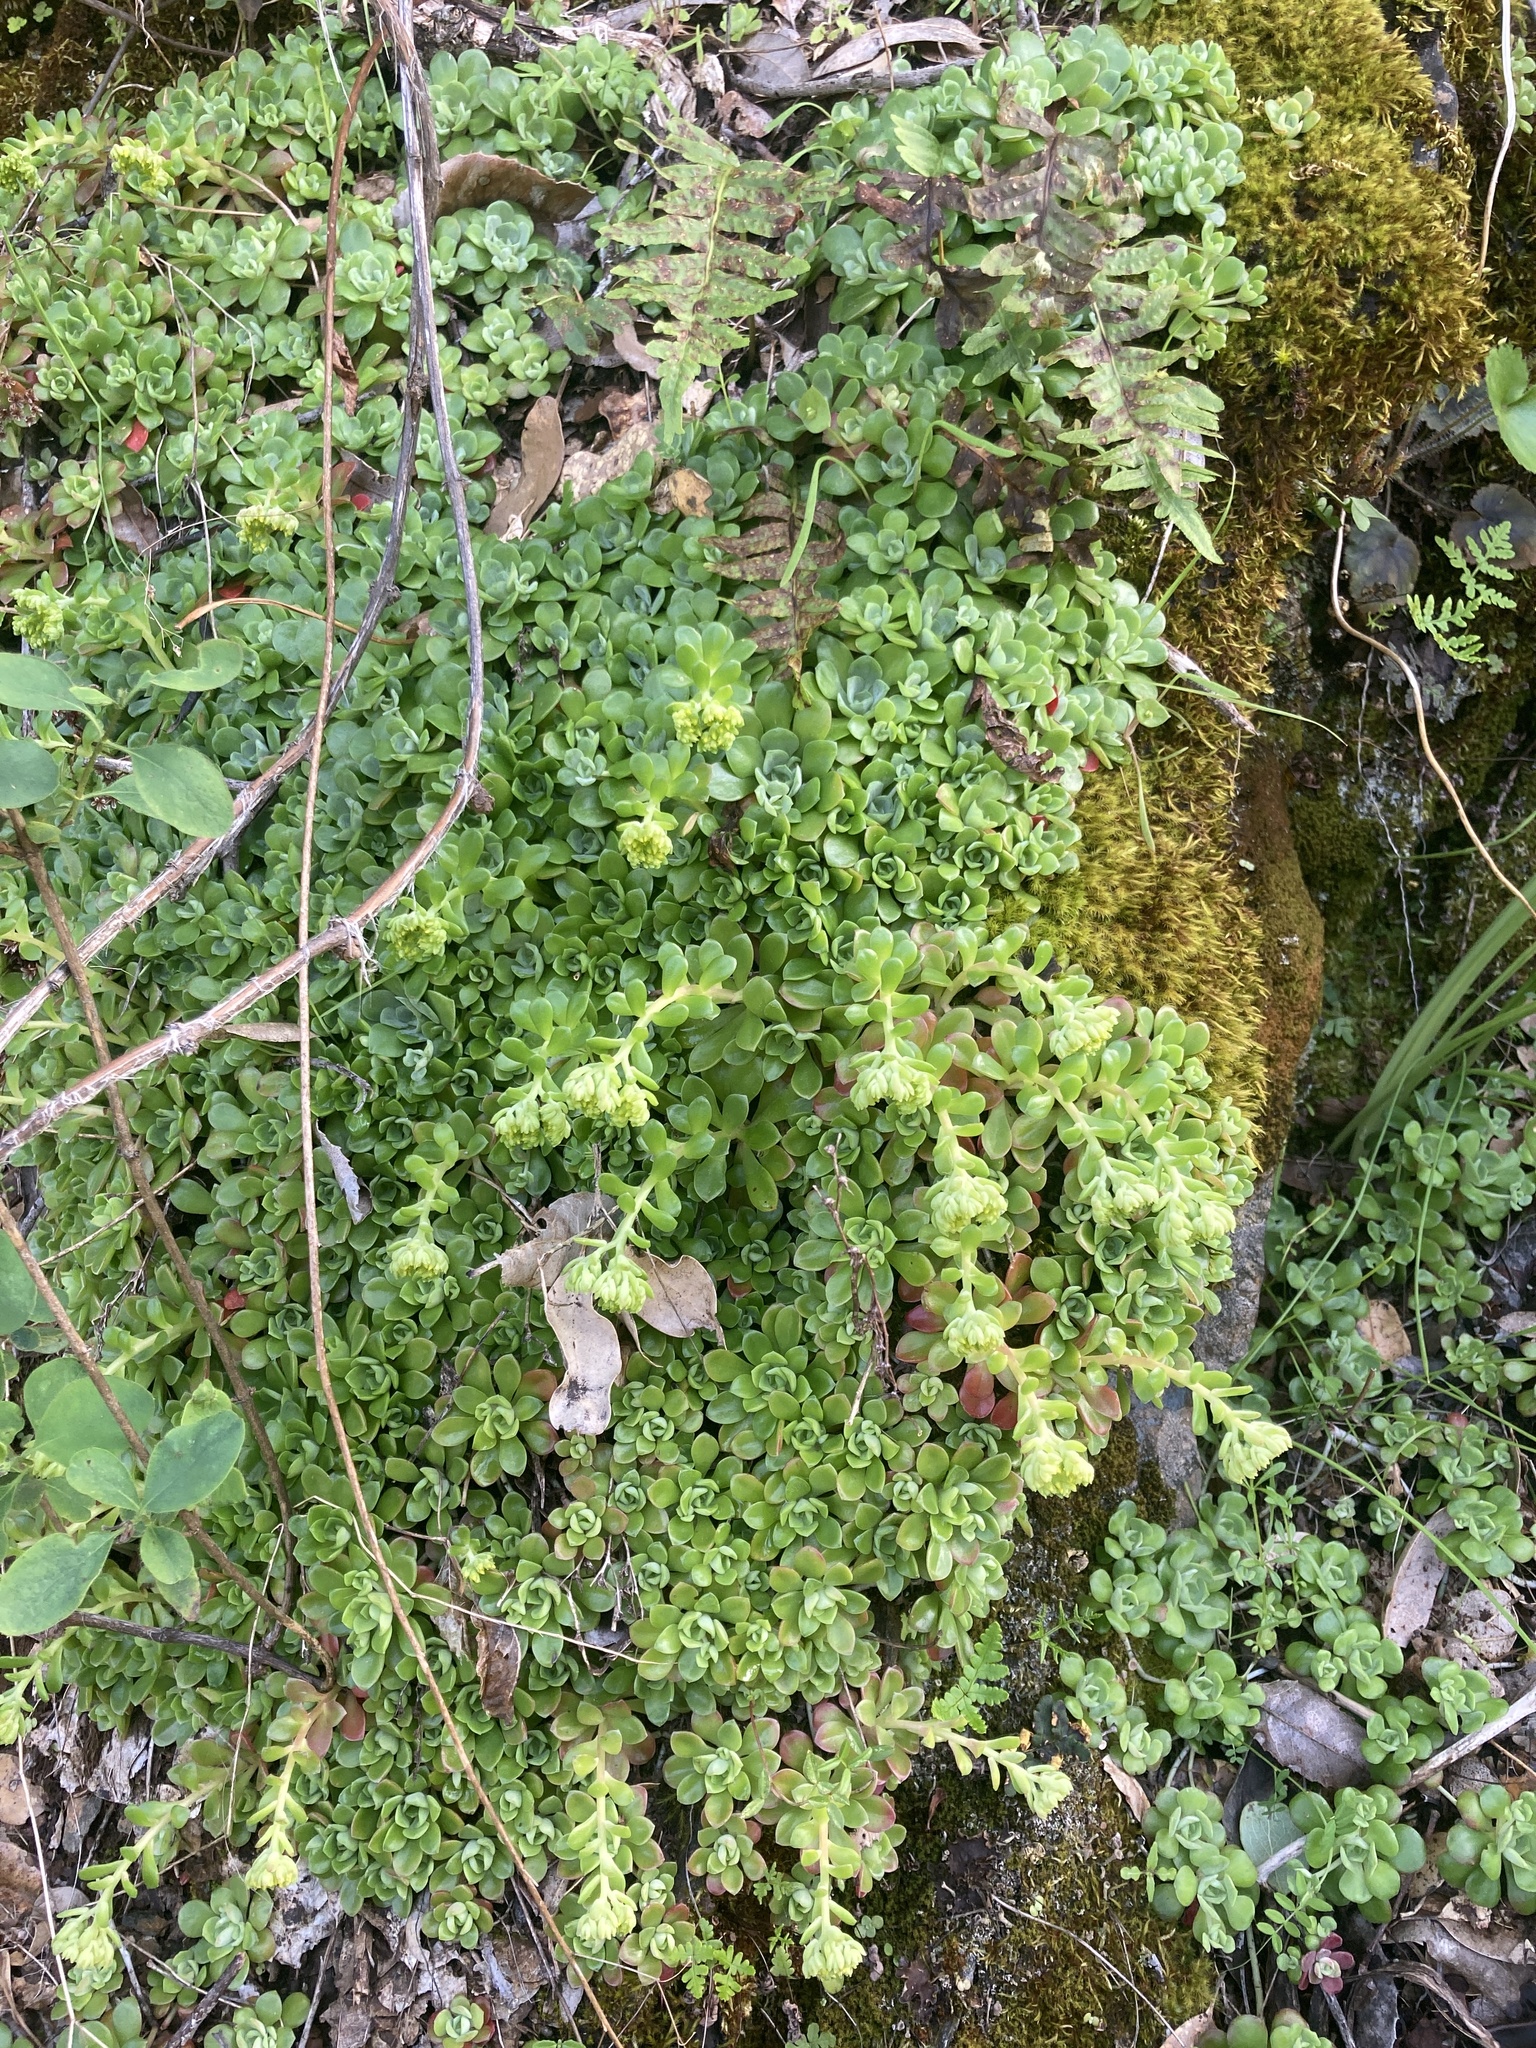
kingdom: Plantae
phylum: Tracheophyta
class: Magnoliopsida
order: Saxifragales
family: Crassulaceae
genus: Sedum
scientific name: Sedum spathulifolium
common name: Colorado stonecrop
